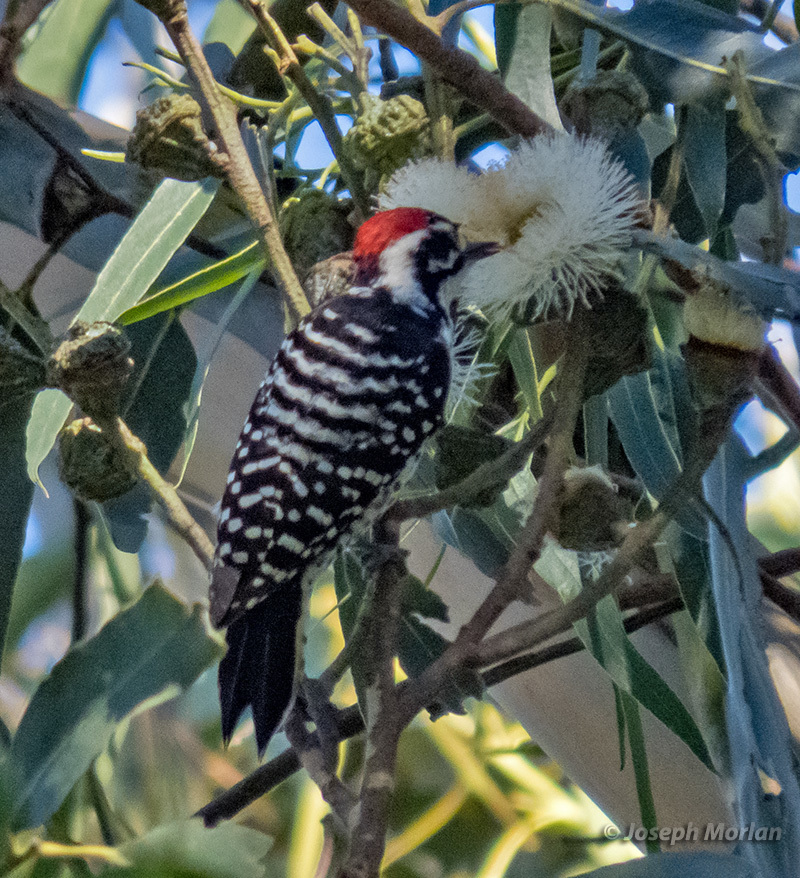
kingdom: Animalia
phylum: Chordata
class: Aves
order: Piciformes
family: Picidae
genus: Dryobates
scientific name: Dryobates nuttallii
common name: Nuttall's woodpecker
